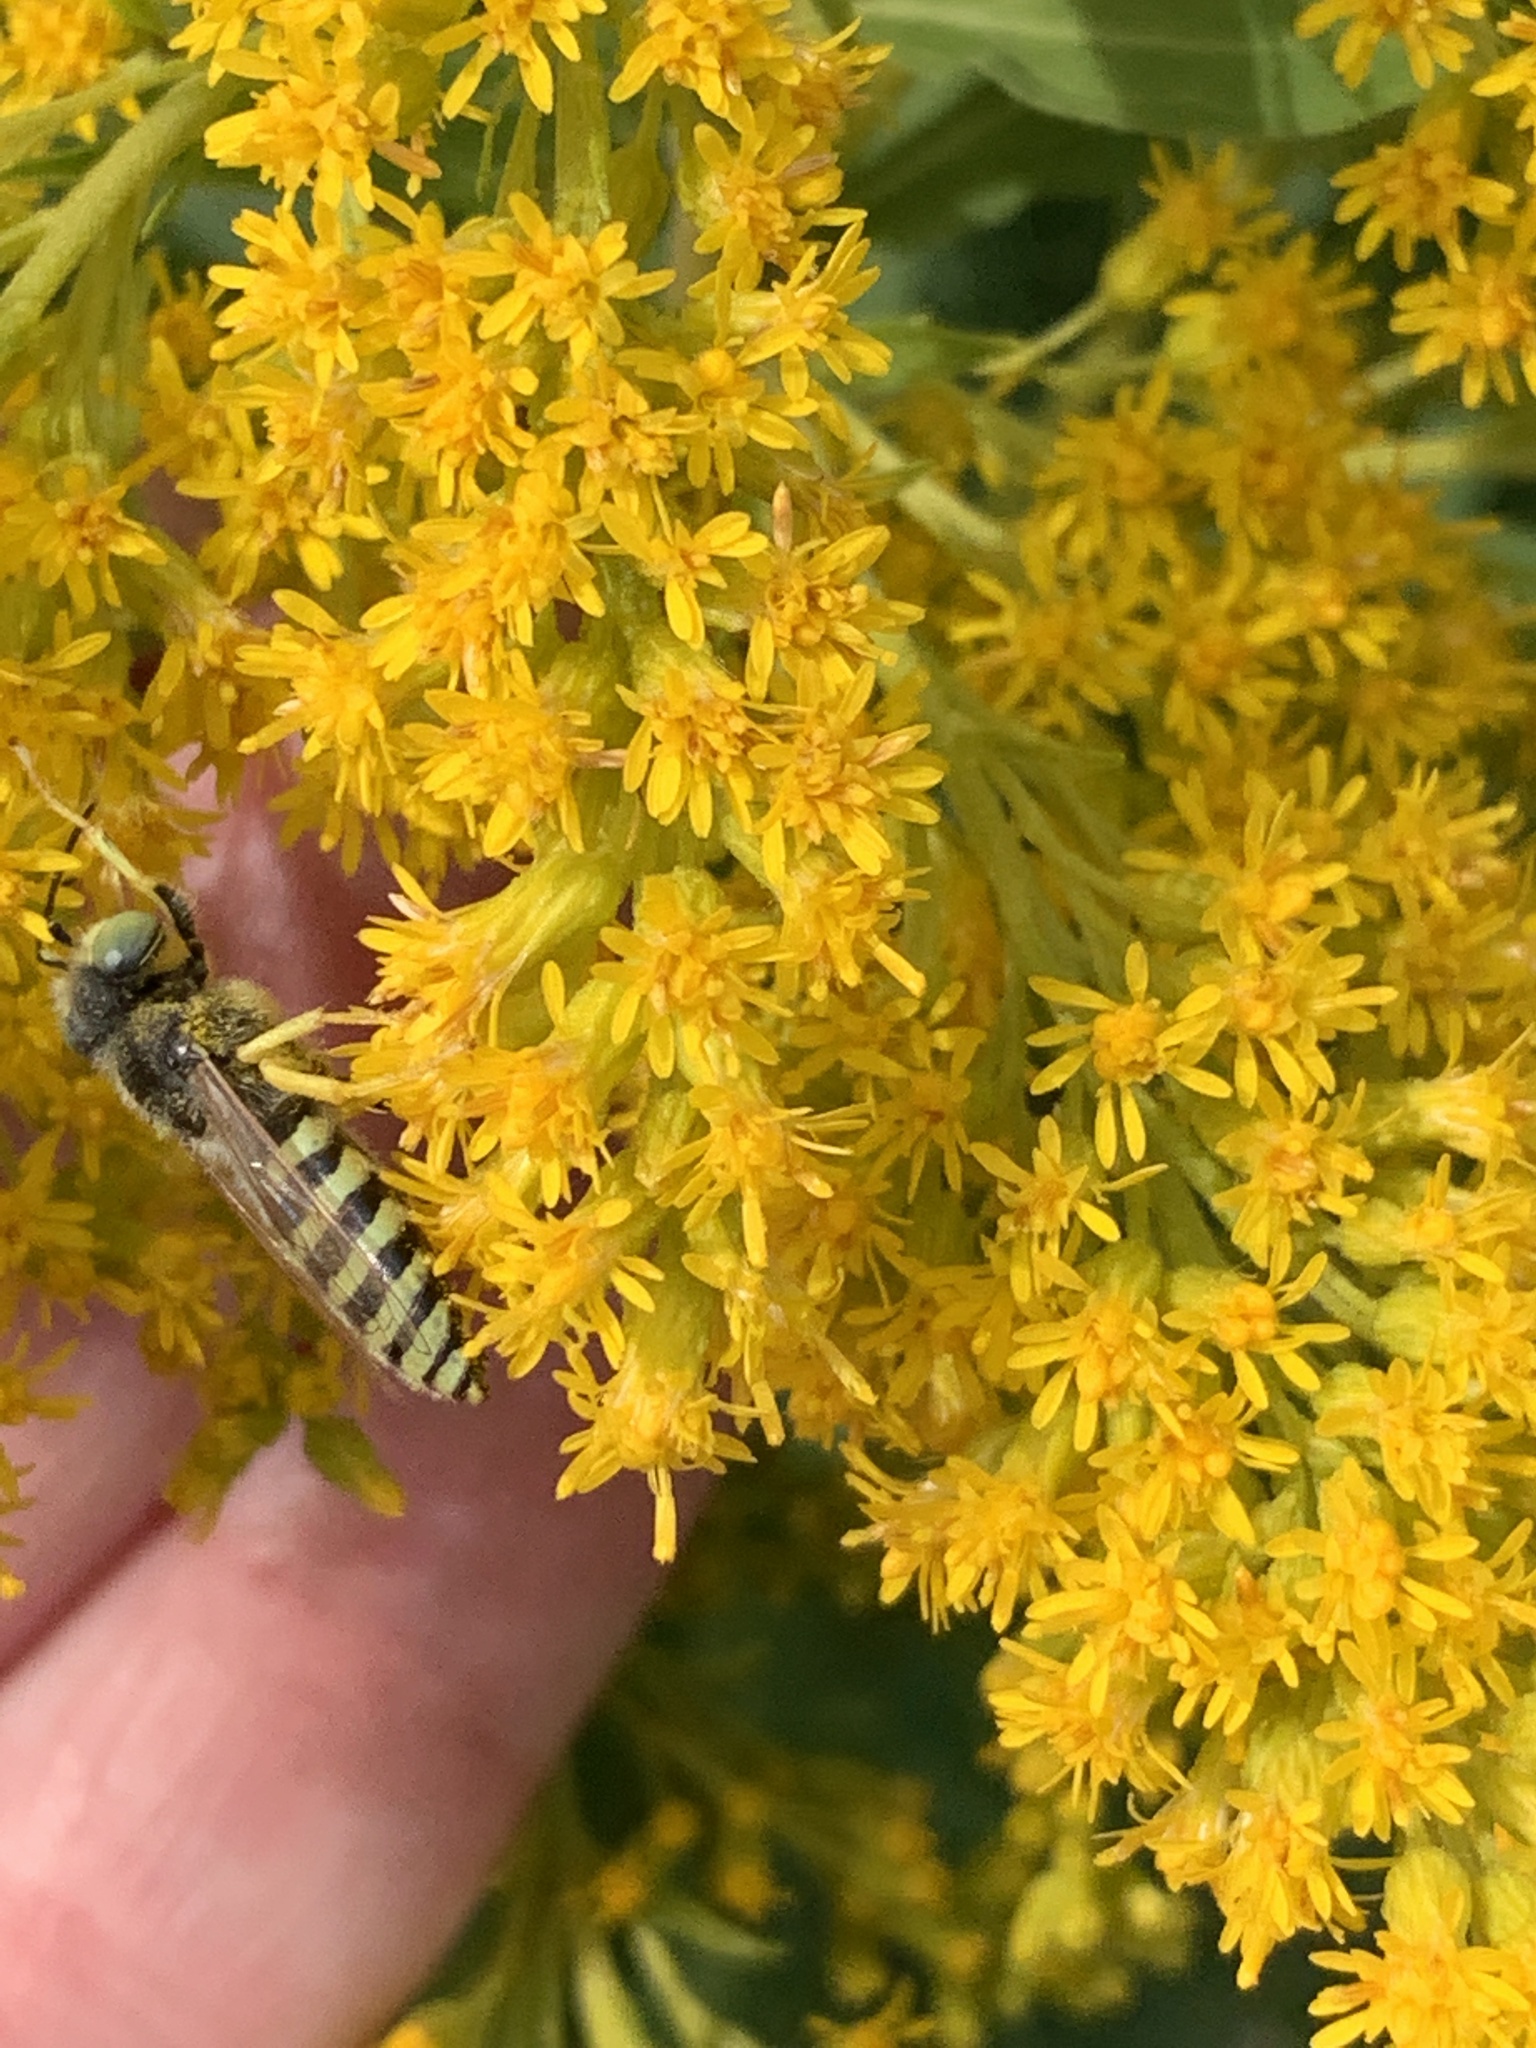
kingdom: Animalia
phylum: Arthropoda
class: Insecta
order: Hymenoptera
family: Crabronidae
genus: Bembix
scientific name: Bembix americana
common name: American sand wasp
